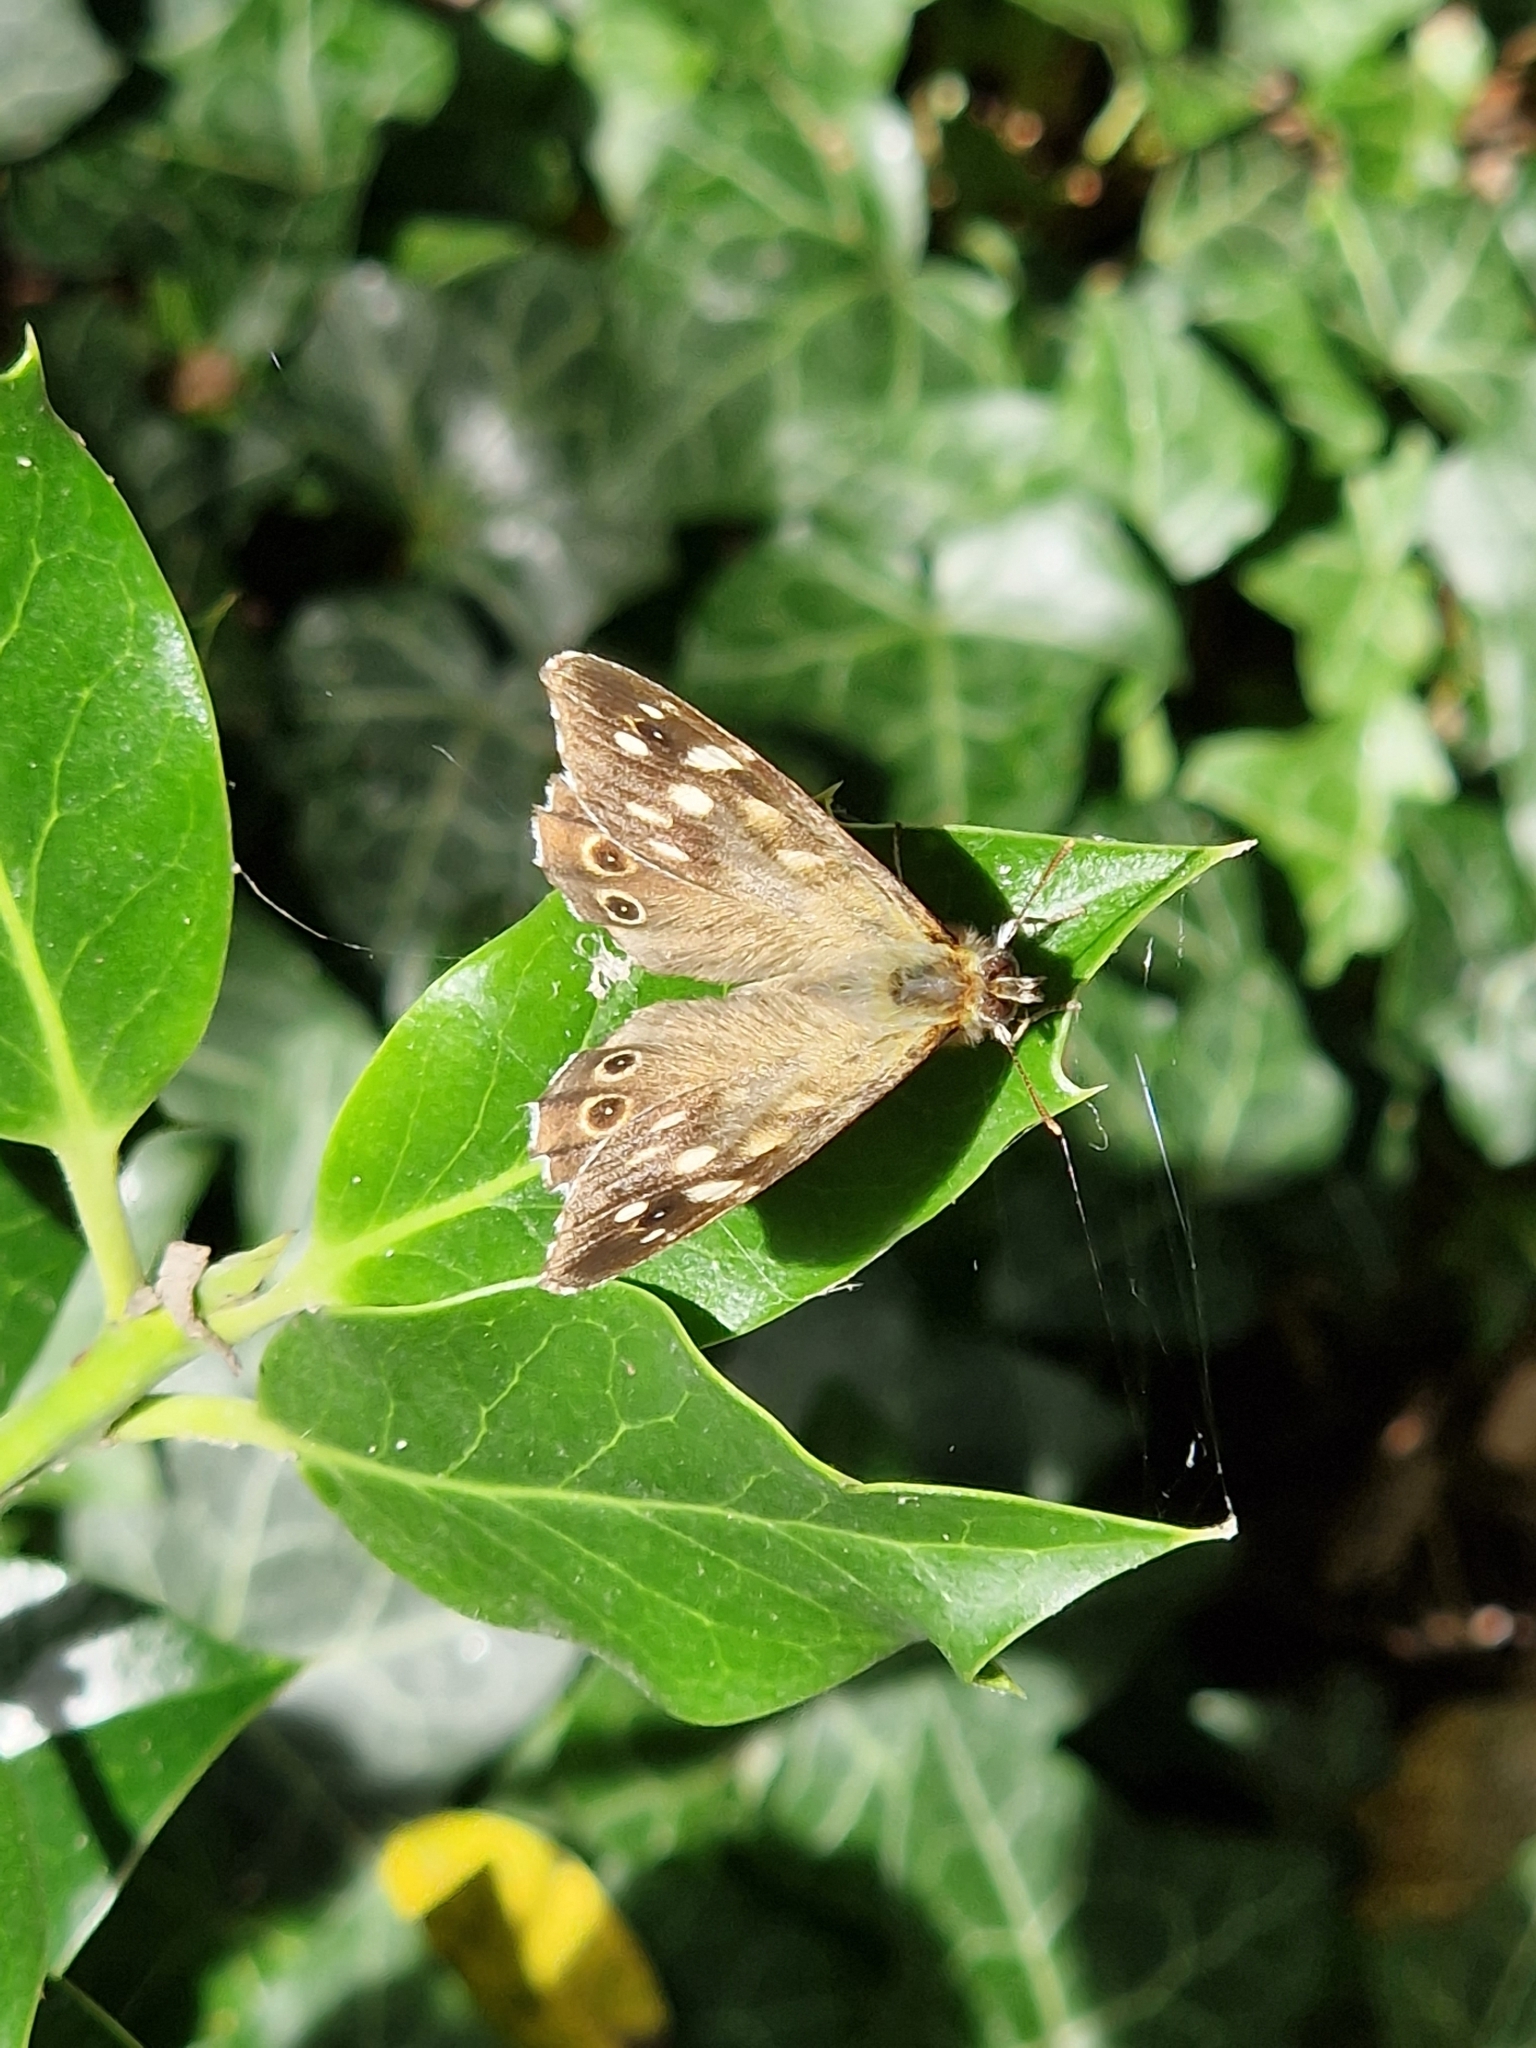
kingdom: Animalia
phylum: Arthropoda
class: Insecta
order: Lepidoptera
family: Nymphalidae
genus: Pararge
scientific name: Pararge aegeria
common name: Speckled wood
